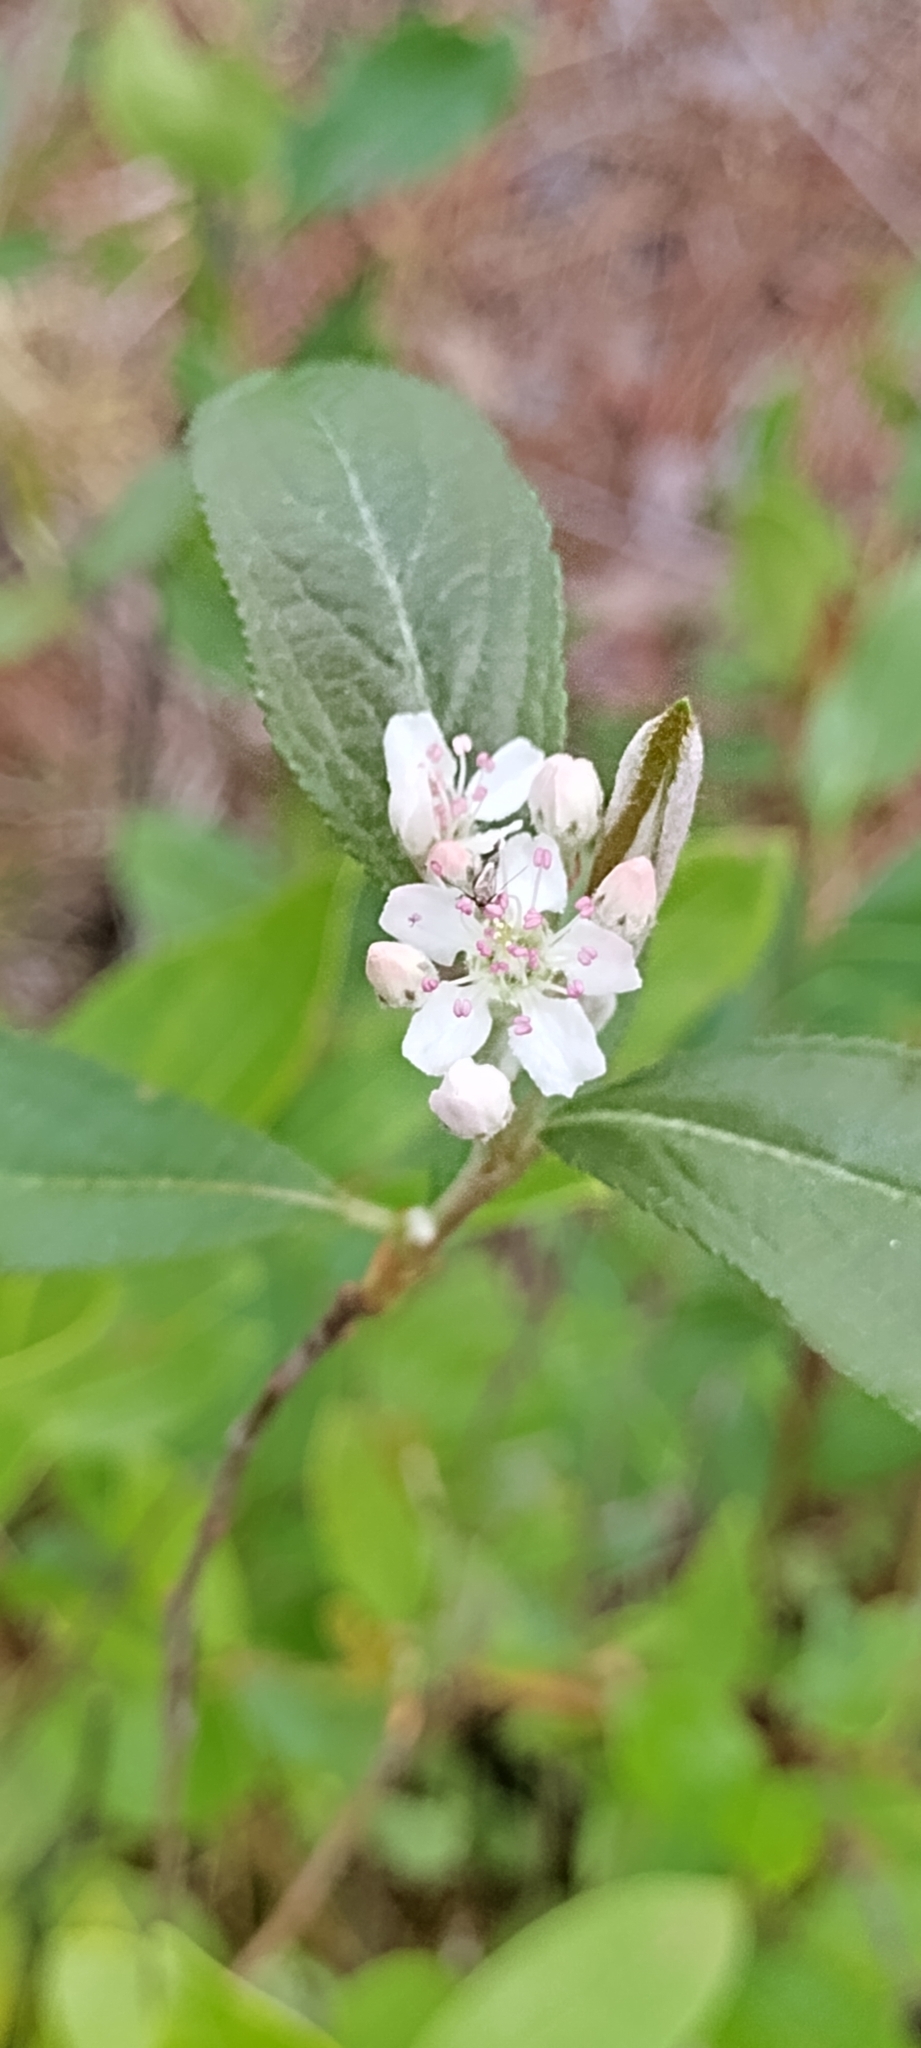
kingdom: Plantae
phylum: Tracheophyta
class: Magnoliopsida
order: Rosales
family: Rosaceae
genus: Aronia
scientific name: Aronia arbutifolia
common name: Red chokeberry
